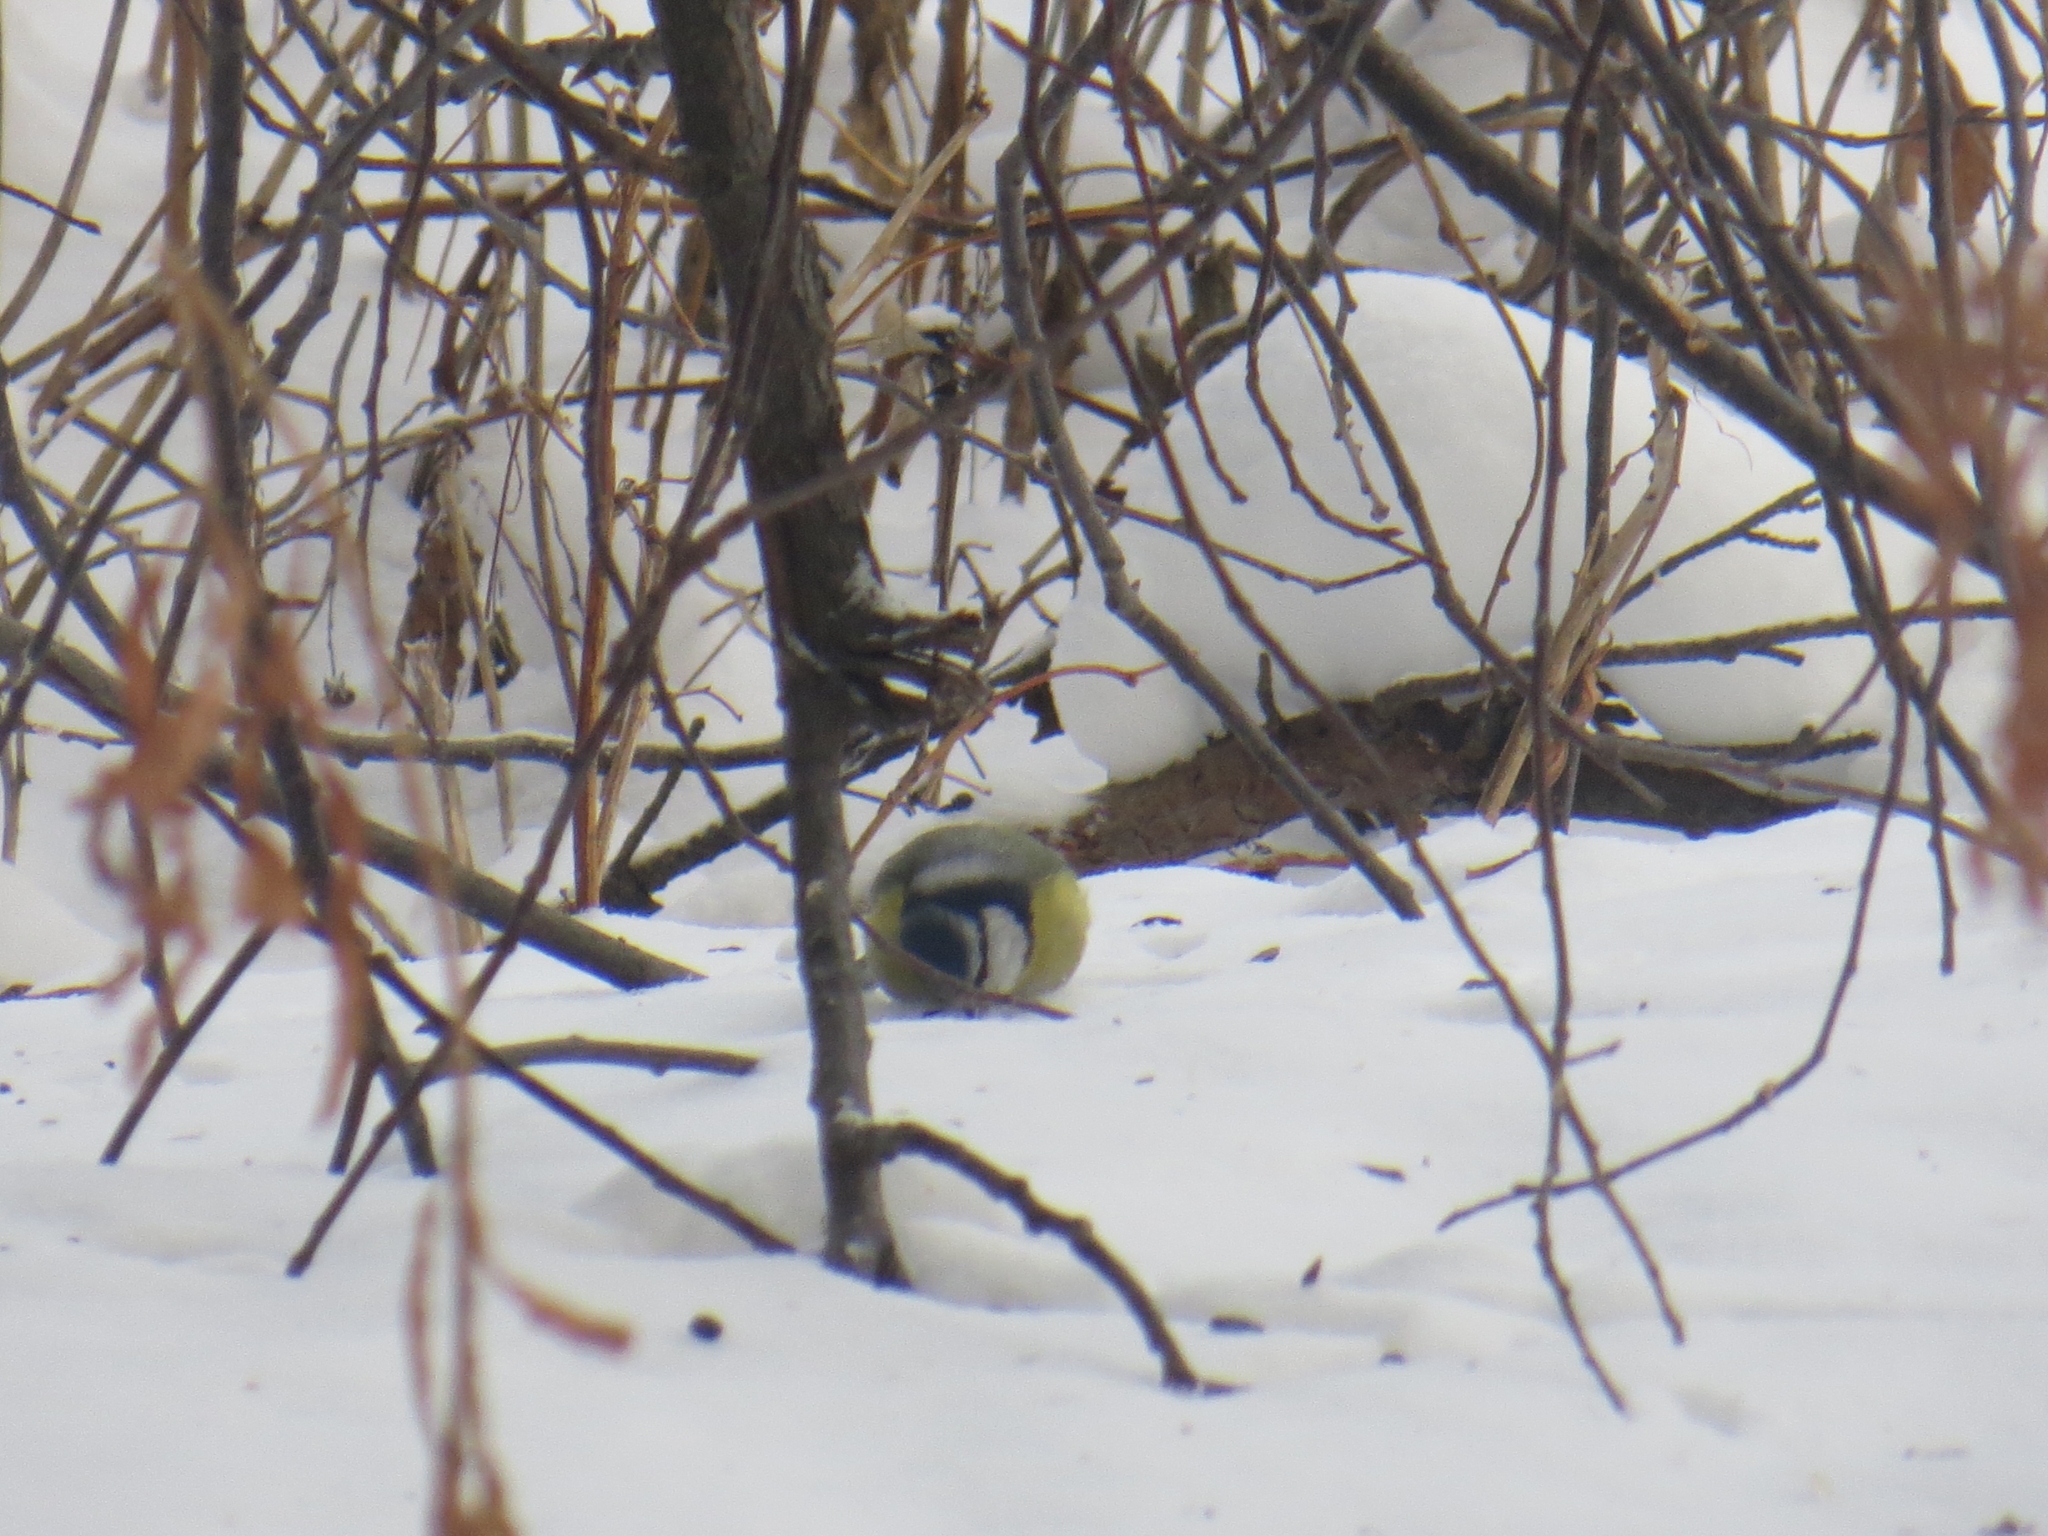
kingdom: Animalia
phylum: Chordata
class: Aves
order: Passeriformes
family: Paridae
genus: Cyanistes
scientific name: Cyanistes caeruleus
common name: Eurasian blue tit
